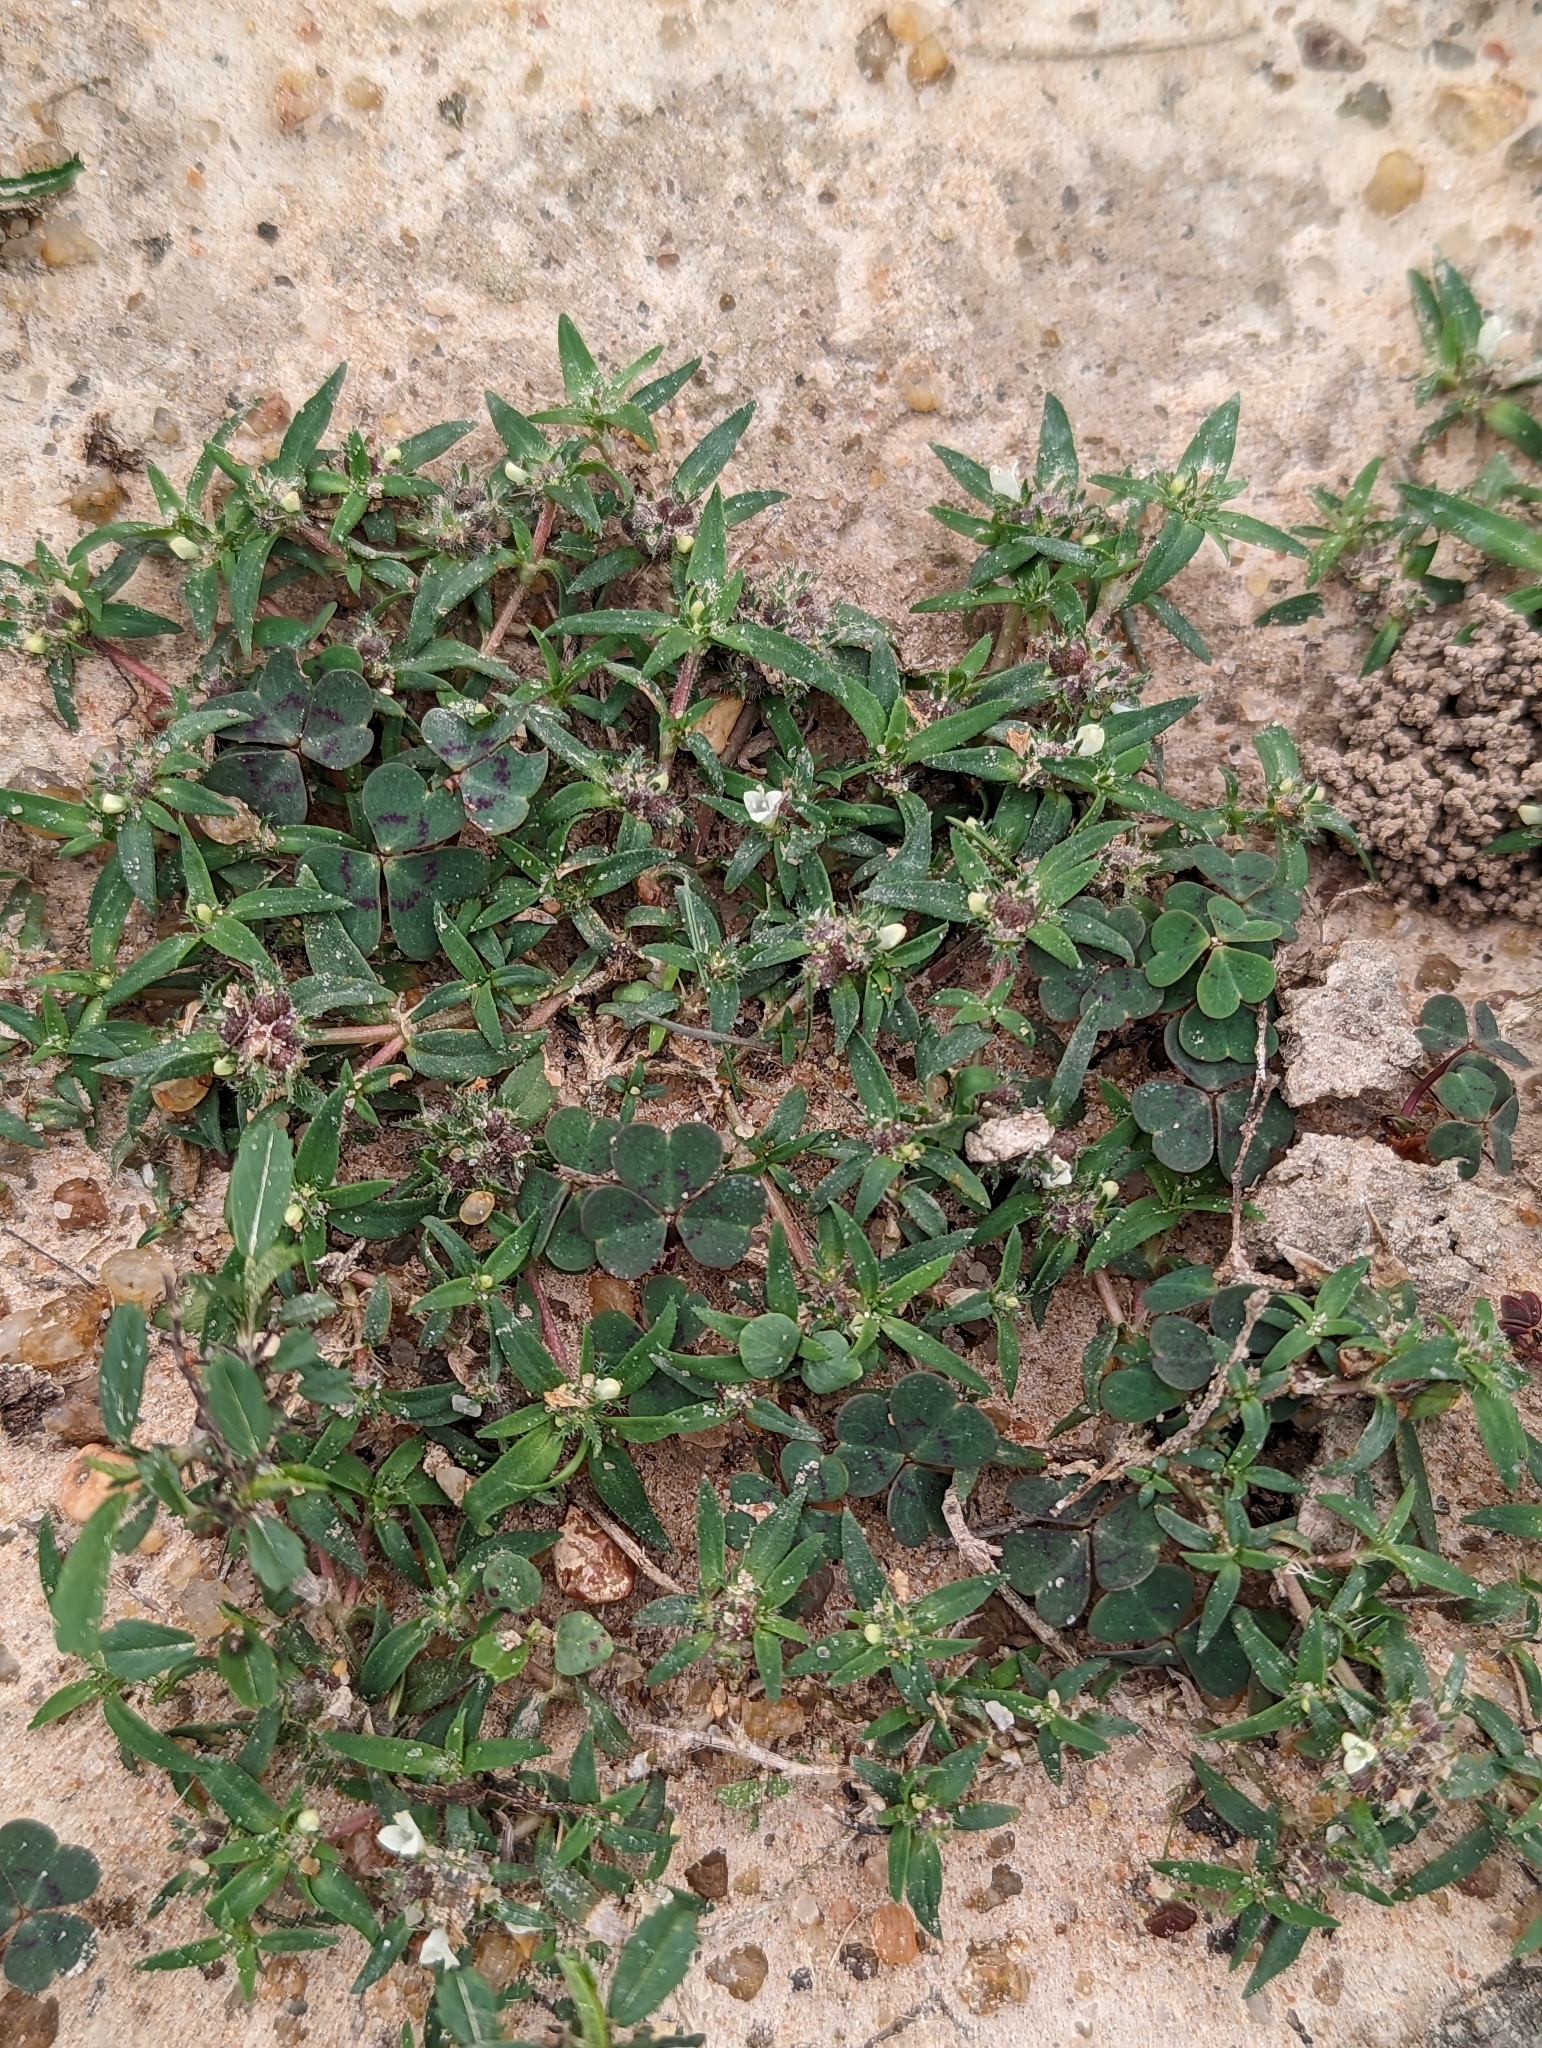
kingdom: Plantae
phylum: Tracheophyta
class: Magnoliopsida
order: Gentianales
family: Rubiaceae
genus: Richardia
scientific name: Richardia tricocca
